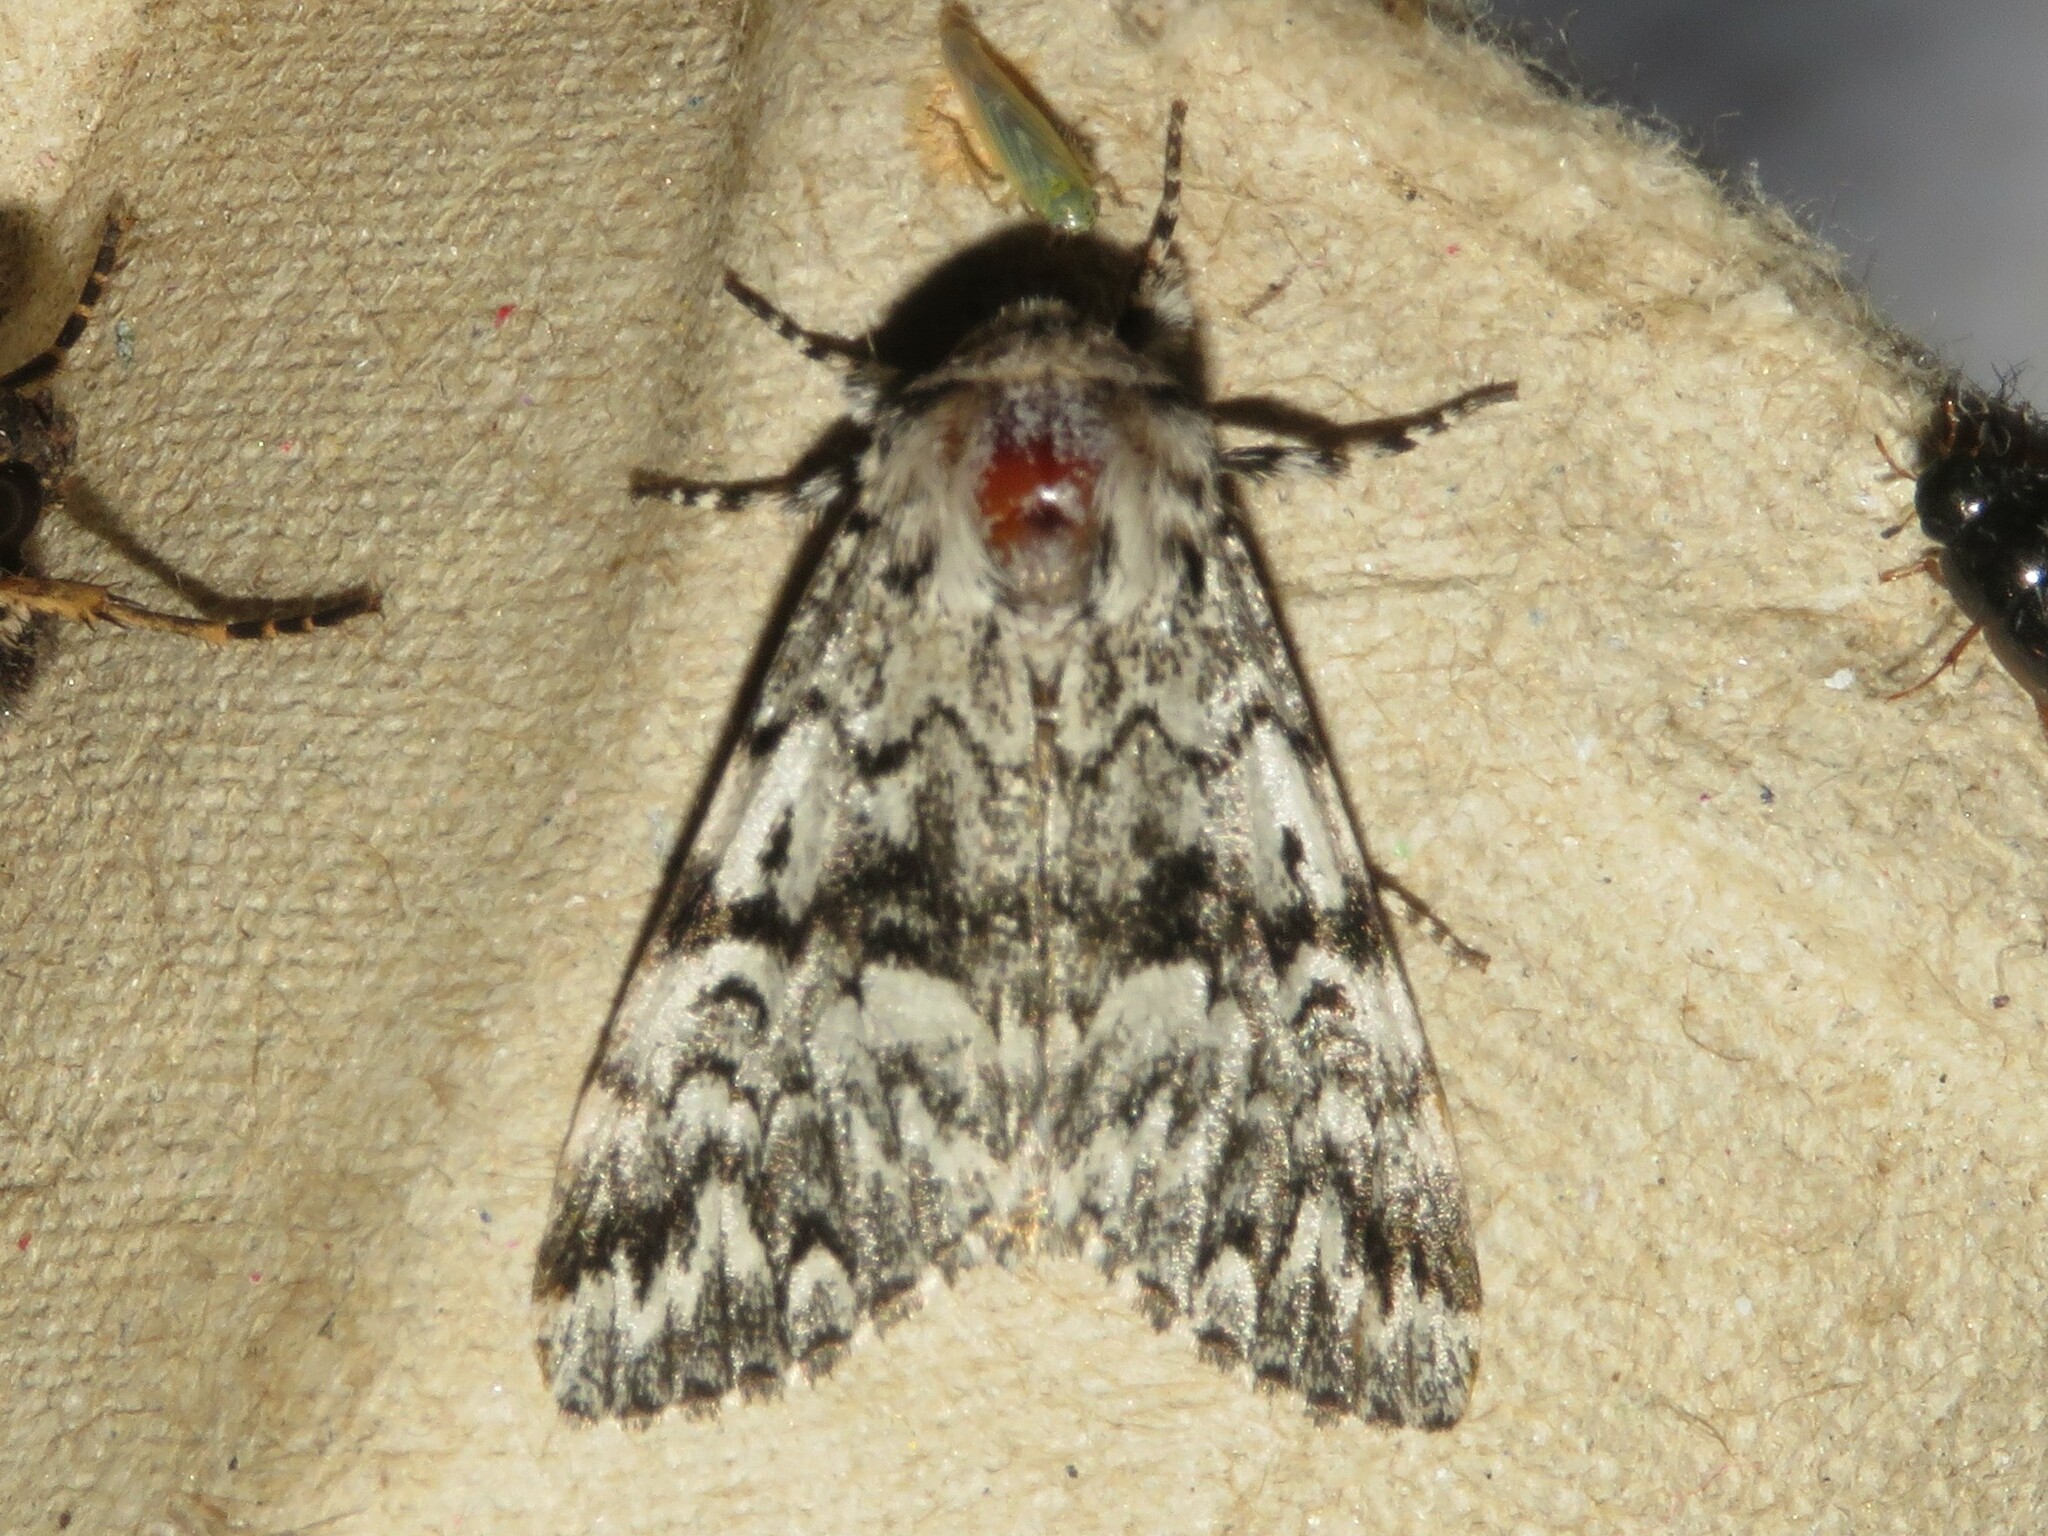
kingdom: Animalia
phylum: Arthropoda
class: Insecta
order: Lepidoptera
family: Noctuidae
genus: Panthea
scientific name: Panthea acronyctoides
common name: Black zigzag moth
